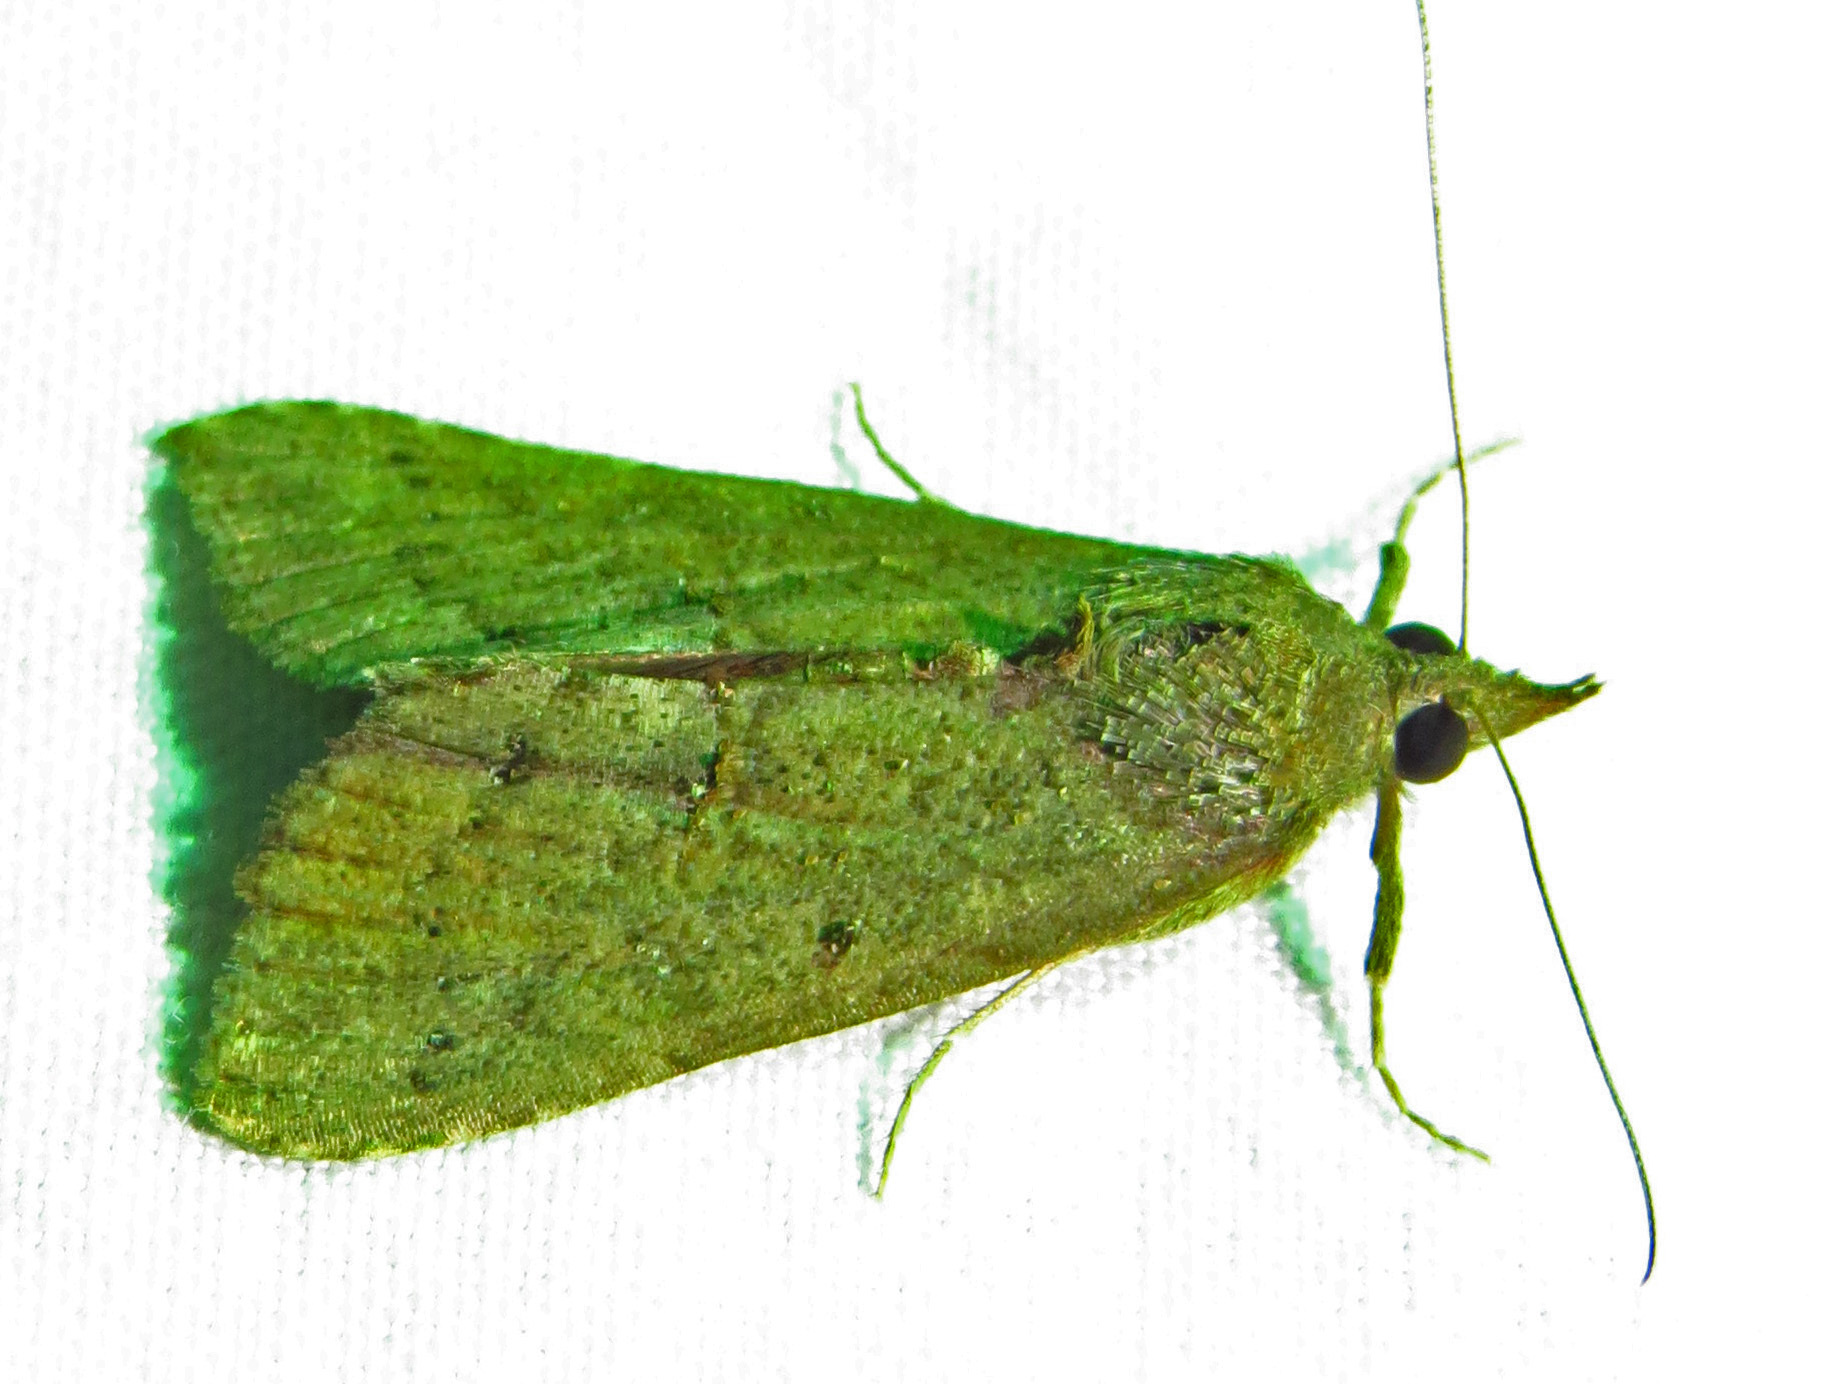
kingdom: Animalia
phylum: Arthropoda
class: Insecta
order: Lepidoptera
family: Erebidae
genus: Hypena
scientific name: Hypena scabra
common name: Green cloverworm
